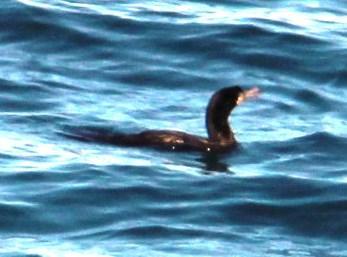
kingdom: Animalia
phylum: Chordata
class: Aves
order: Suliformes
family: Phalacrocoracidae
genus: Phalacrocorax
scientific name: Phalacrocorax brasilianus
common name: Neotropic cormorant
